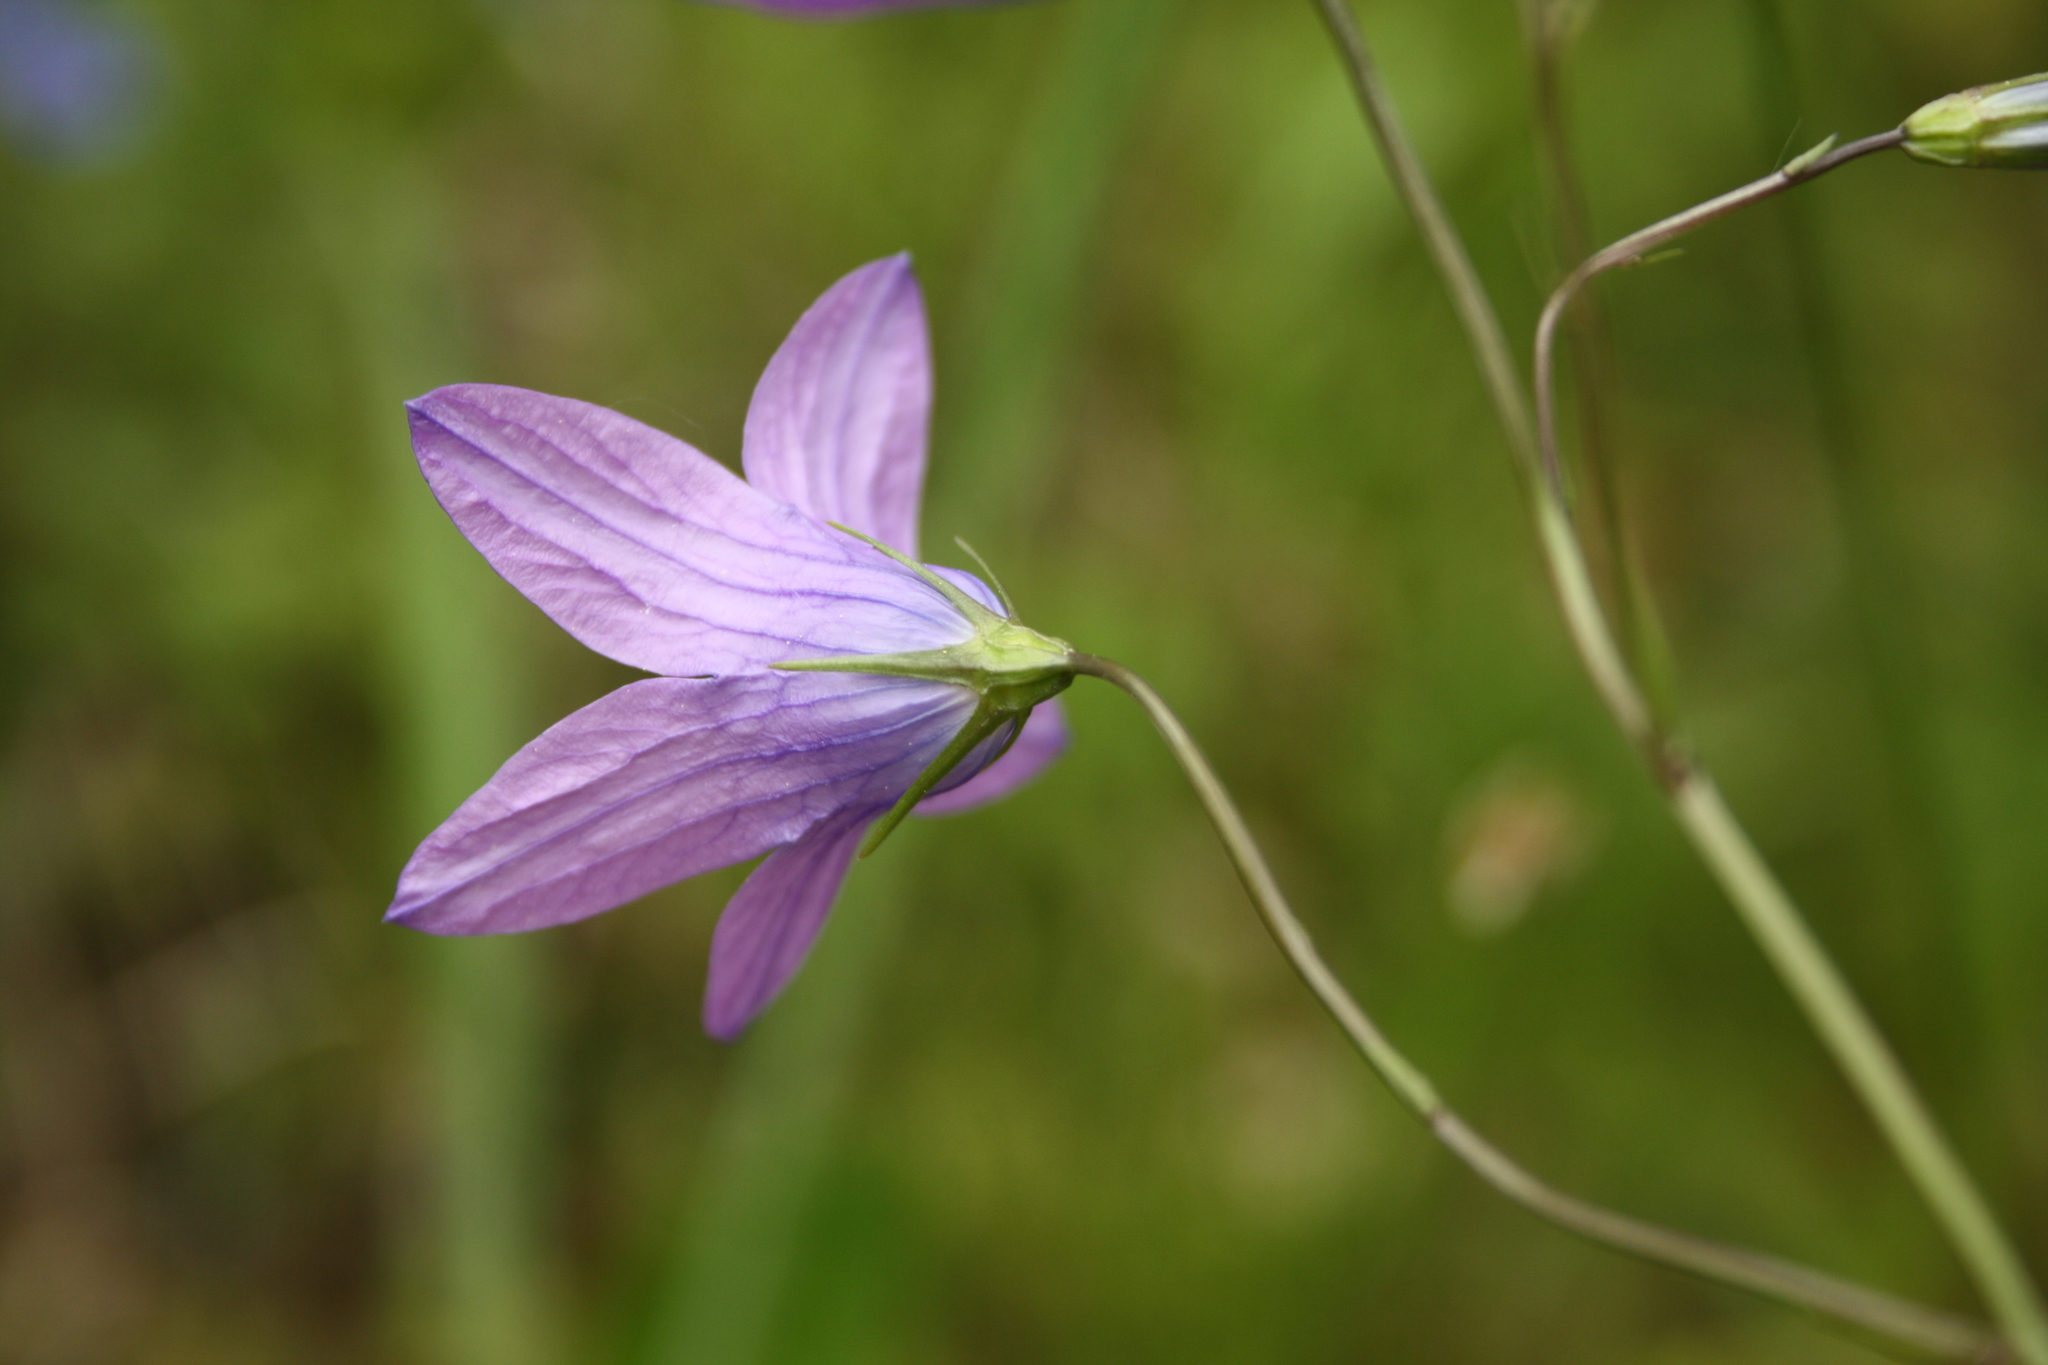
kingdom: Plantae
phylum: Tracheophyta
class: Magnoliopsida
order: Asterales
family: Campanulaceae
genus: Campanula
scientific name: Campanula patula
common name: Spreading bellflower
